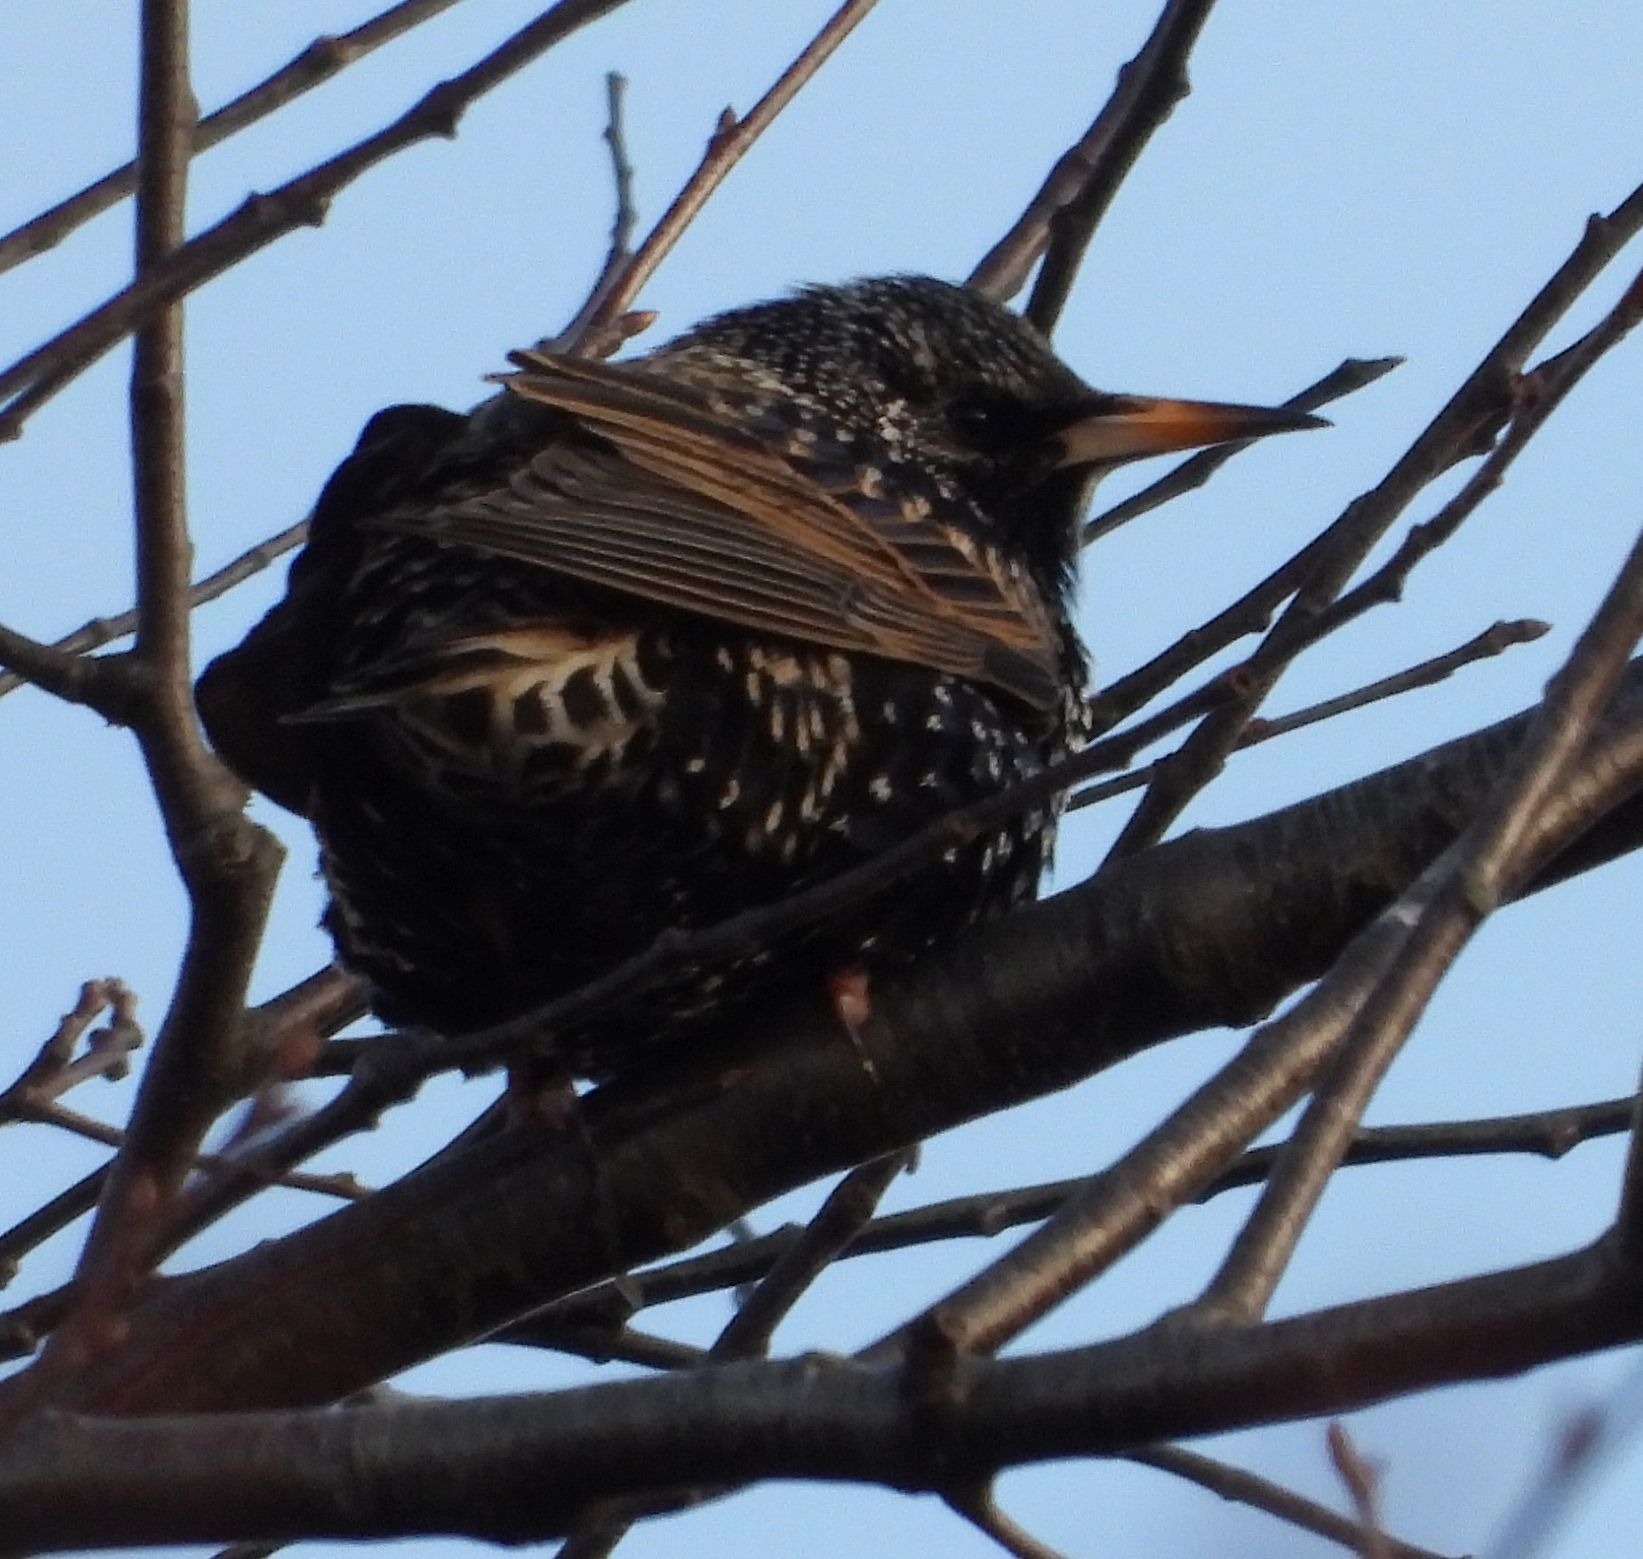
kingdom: Animalia
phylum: Chordata
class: Aves
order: Passeriformes
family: Sturnidae
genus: Sturnus
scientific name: Sturnus vulgaris
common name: Common starling
